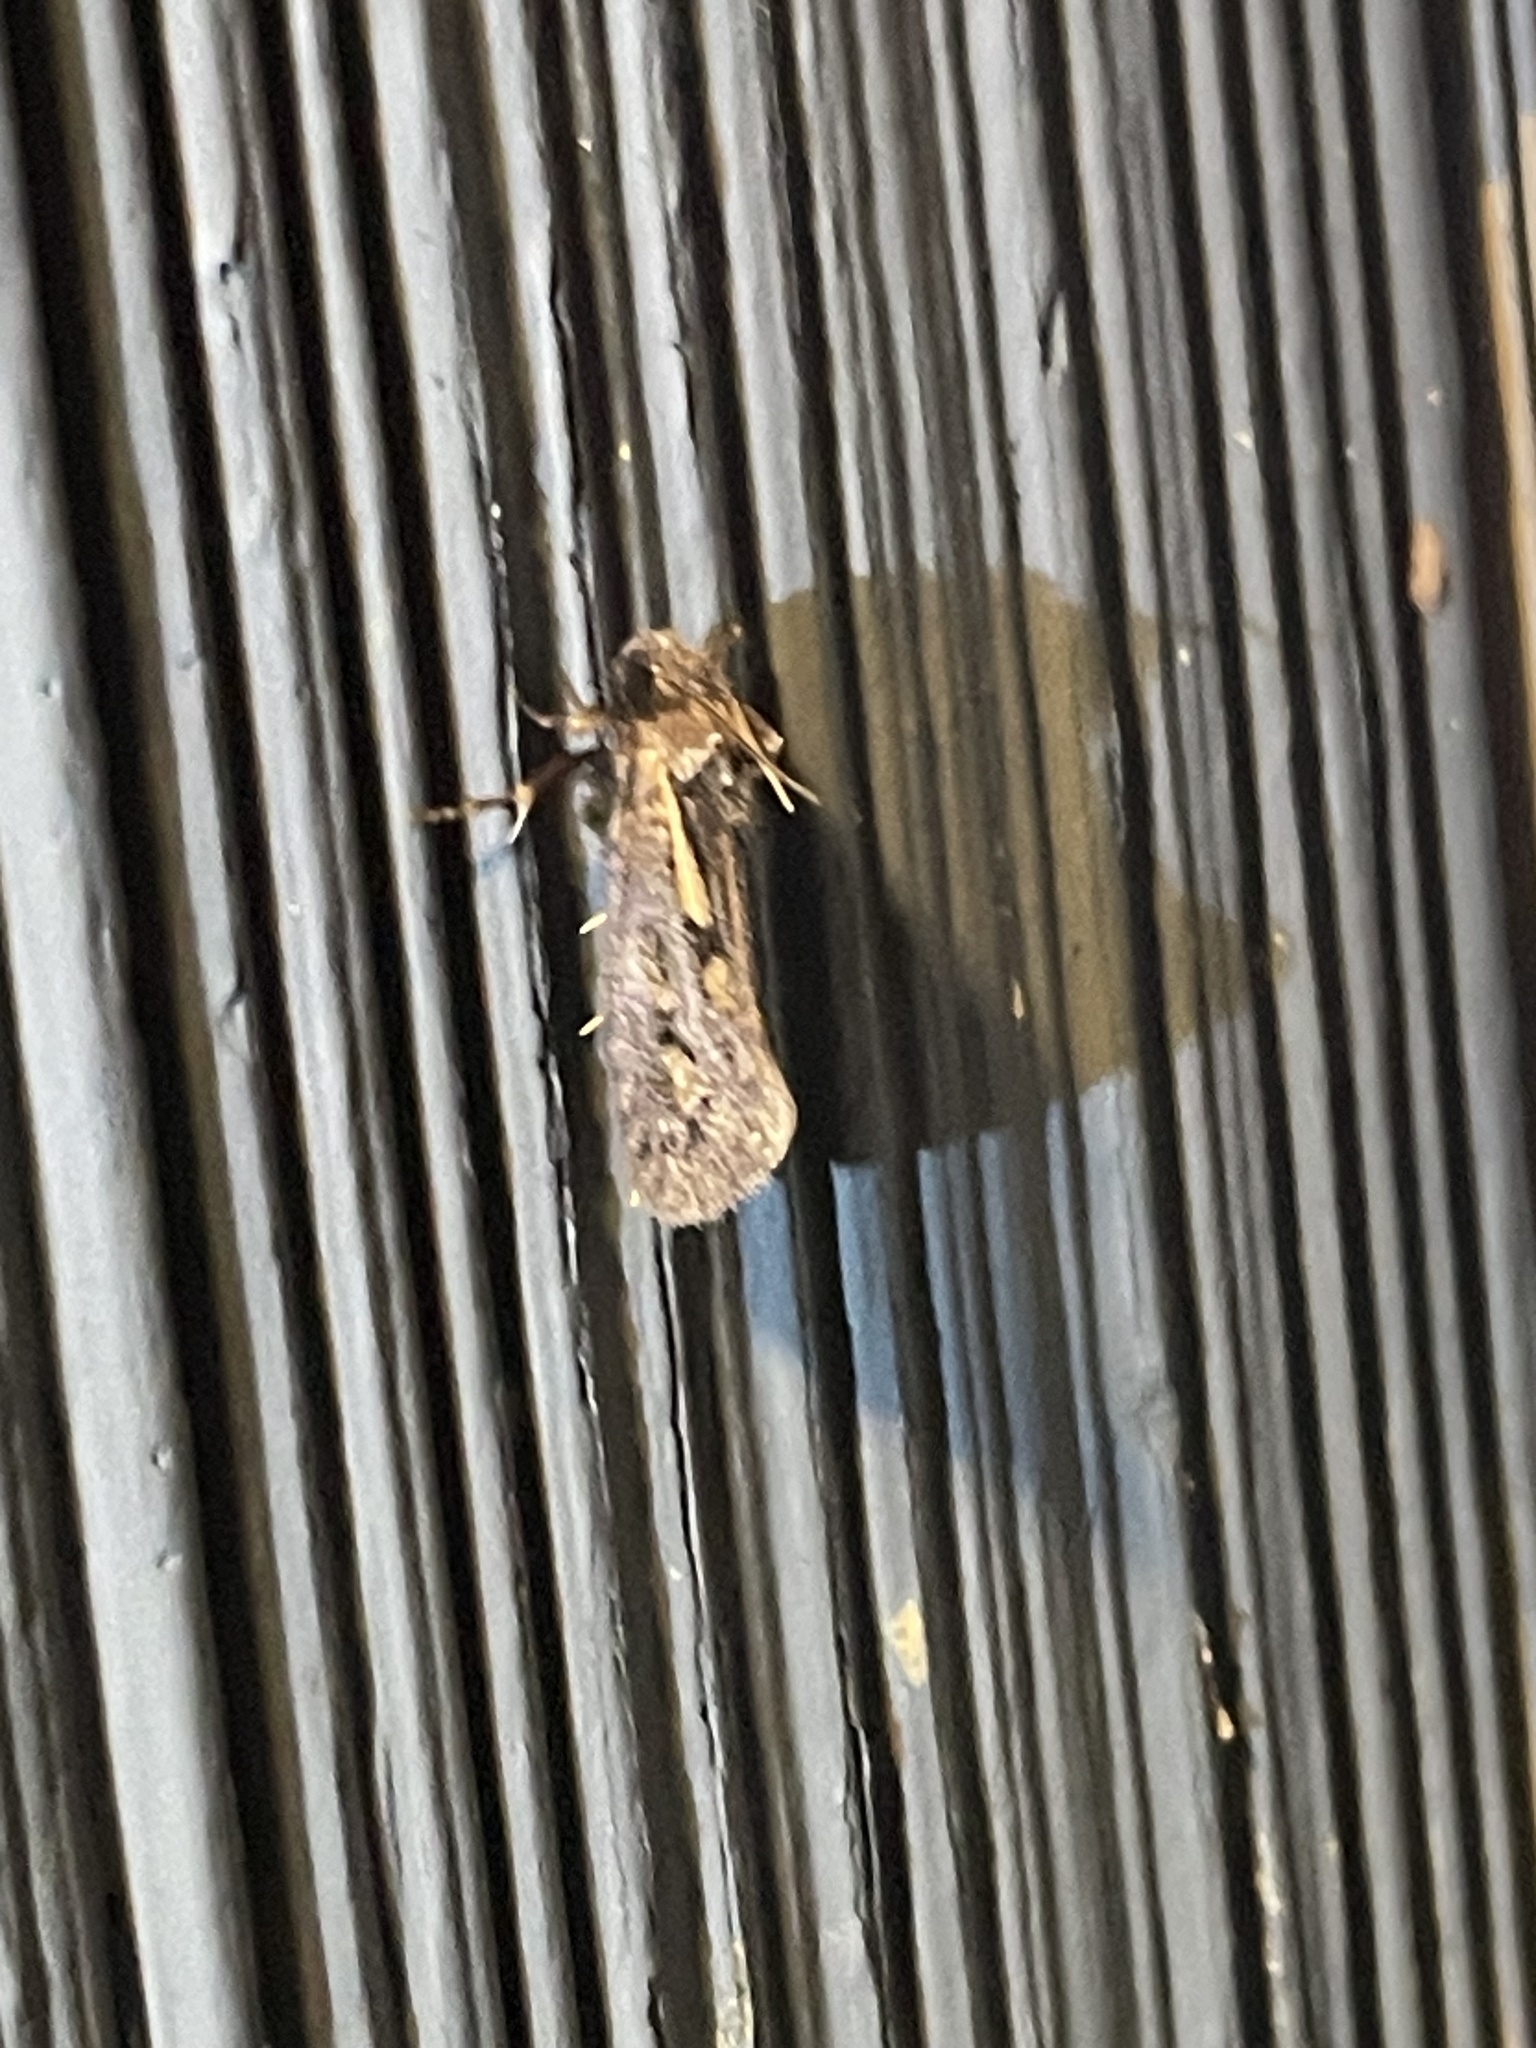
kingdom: Animalia
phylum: Arthropoda
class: Insecta
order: Lepidoptera
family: Tineidae
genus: Acrolophus
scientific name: Acrolophus popeanella
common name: Clemens' grass tubeworm moth
